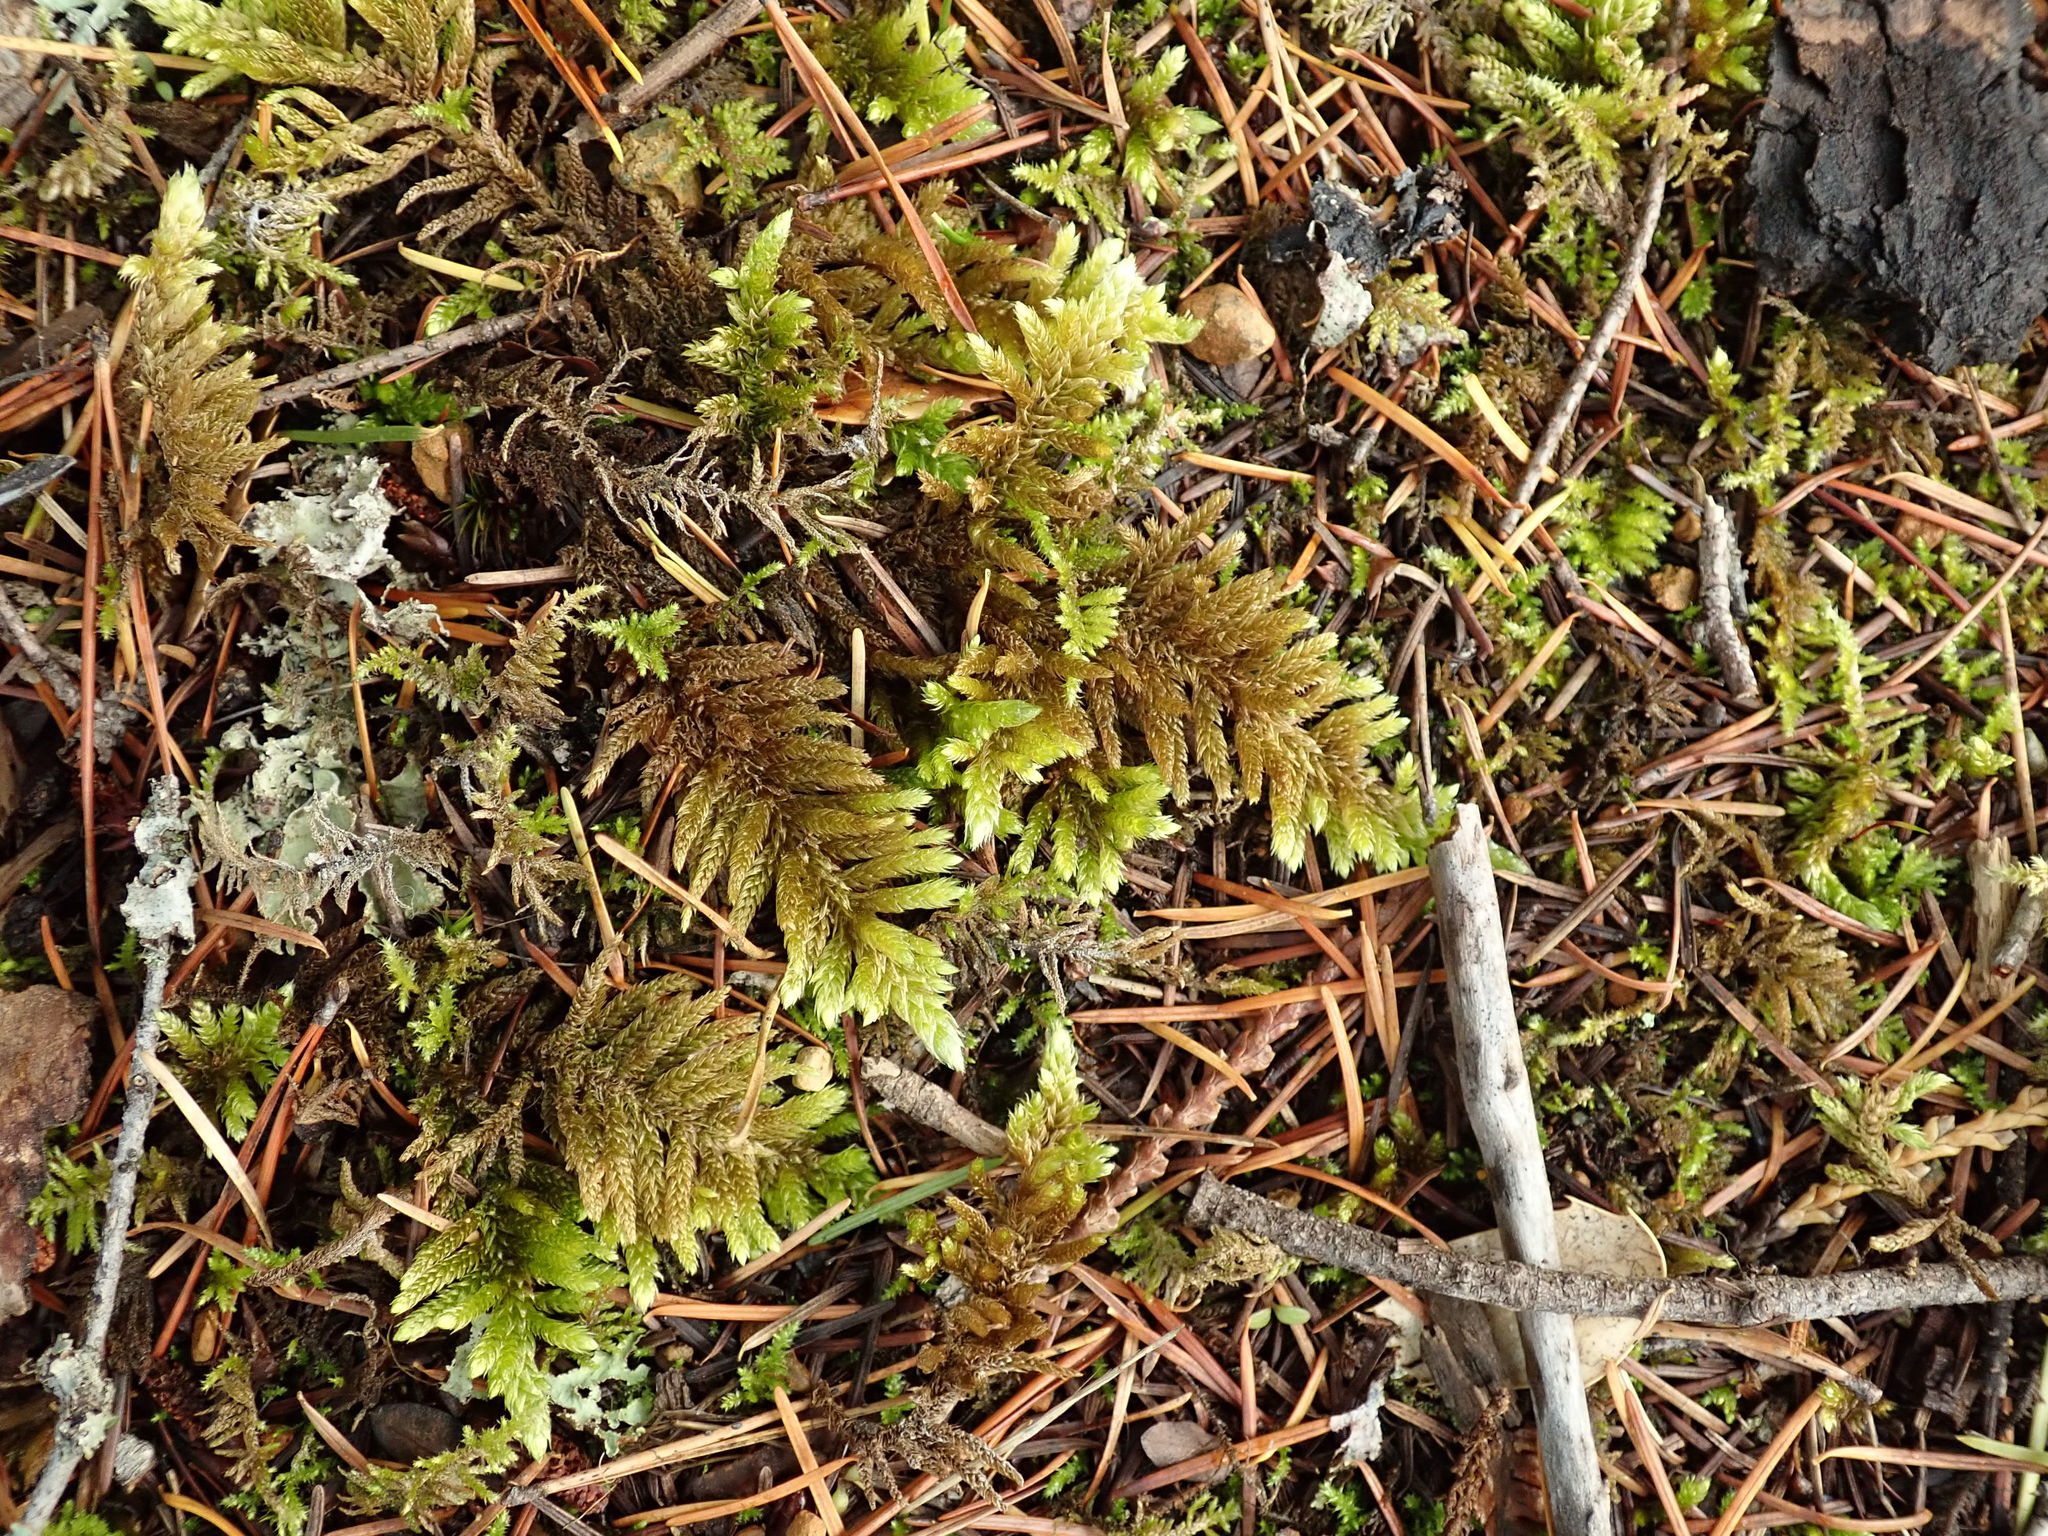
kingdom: Plantae
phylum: Bryophyta
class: Bryopsida
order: Hypnales
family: Brachytheciaceae
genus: Homalothecium
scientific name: Homalothecium megaptilum
